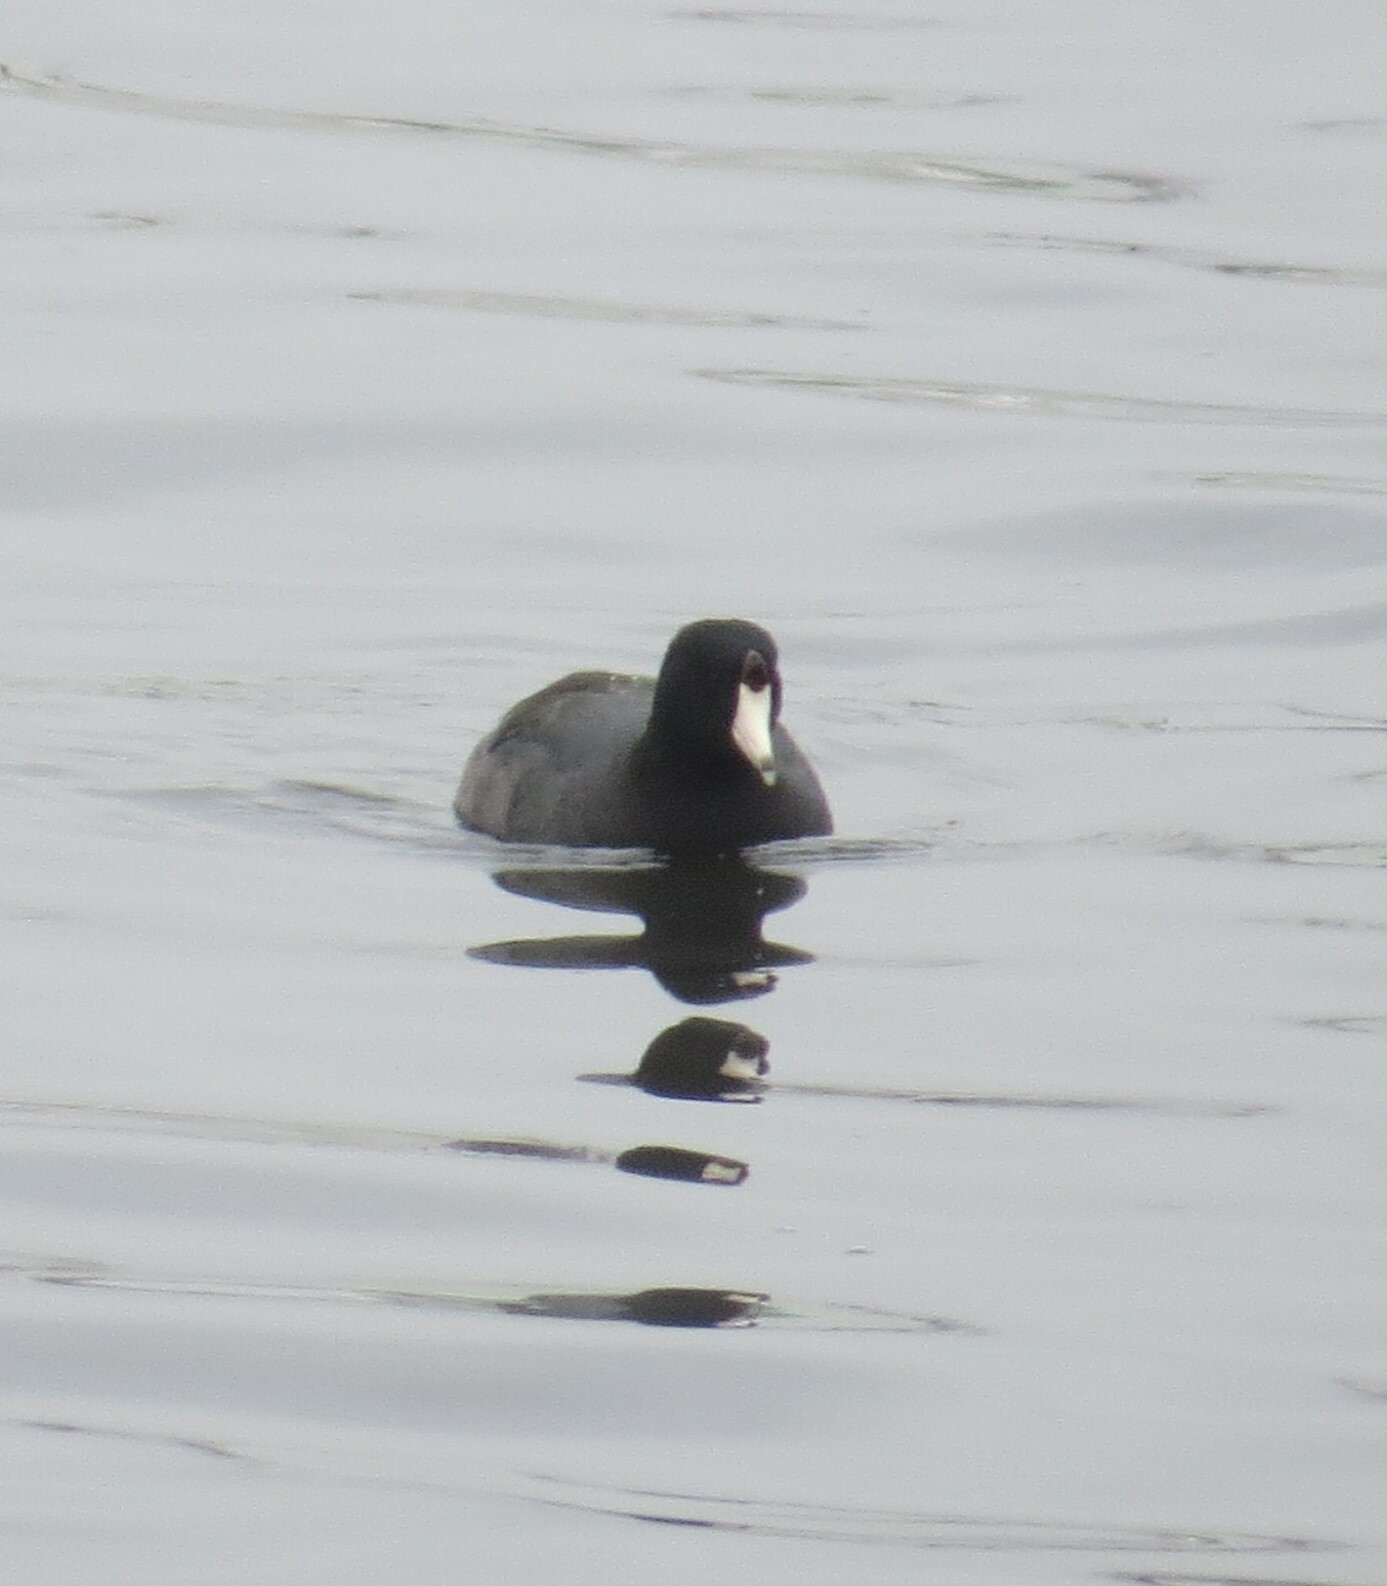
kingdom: Animalia
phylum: Chordata
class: Aves
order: Gruiformes
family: Rallidae
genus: Fulica
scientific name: Fulica americana
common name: American coot
